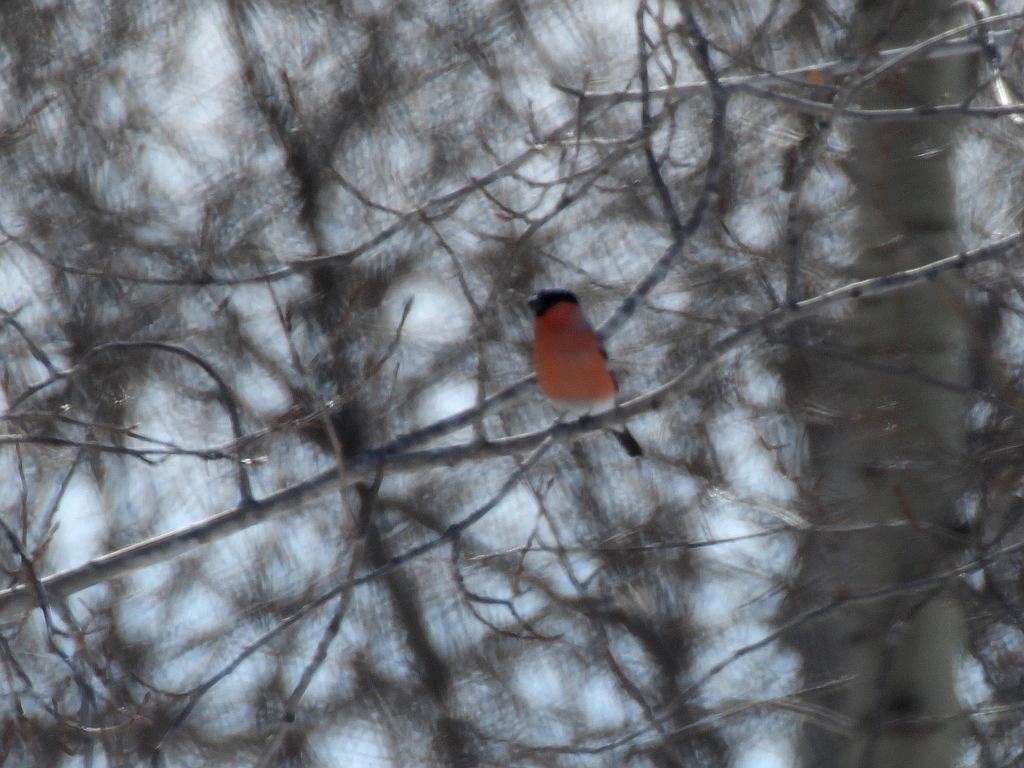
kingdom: Animalia
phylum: Chordata
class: Aves
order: Passeriformes
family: Fringillidae
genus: Pyrrhula
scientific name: Pyrrhula pyrrhula
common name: Eurasian bullfinch
